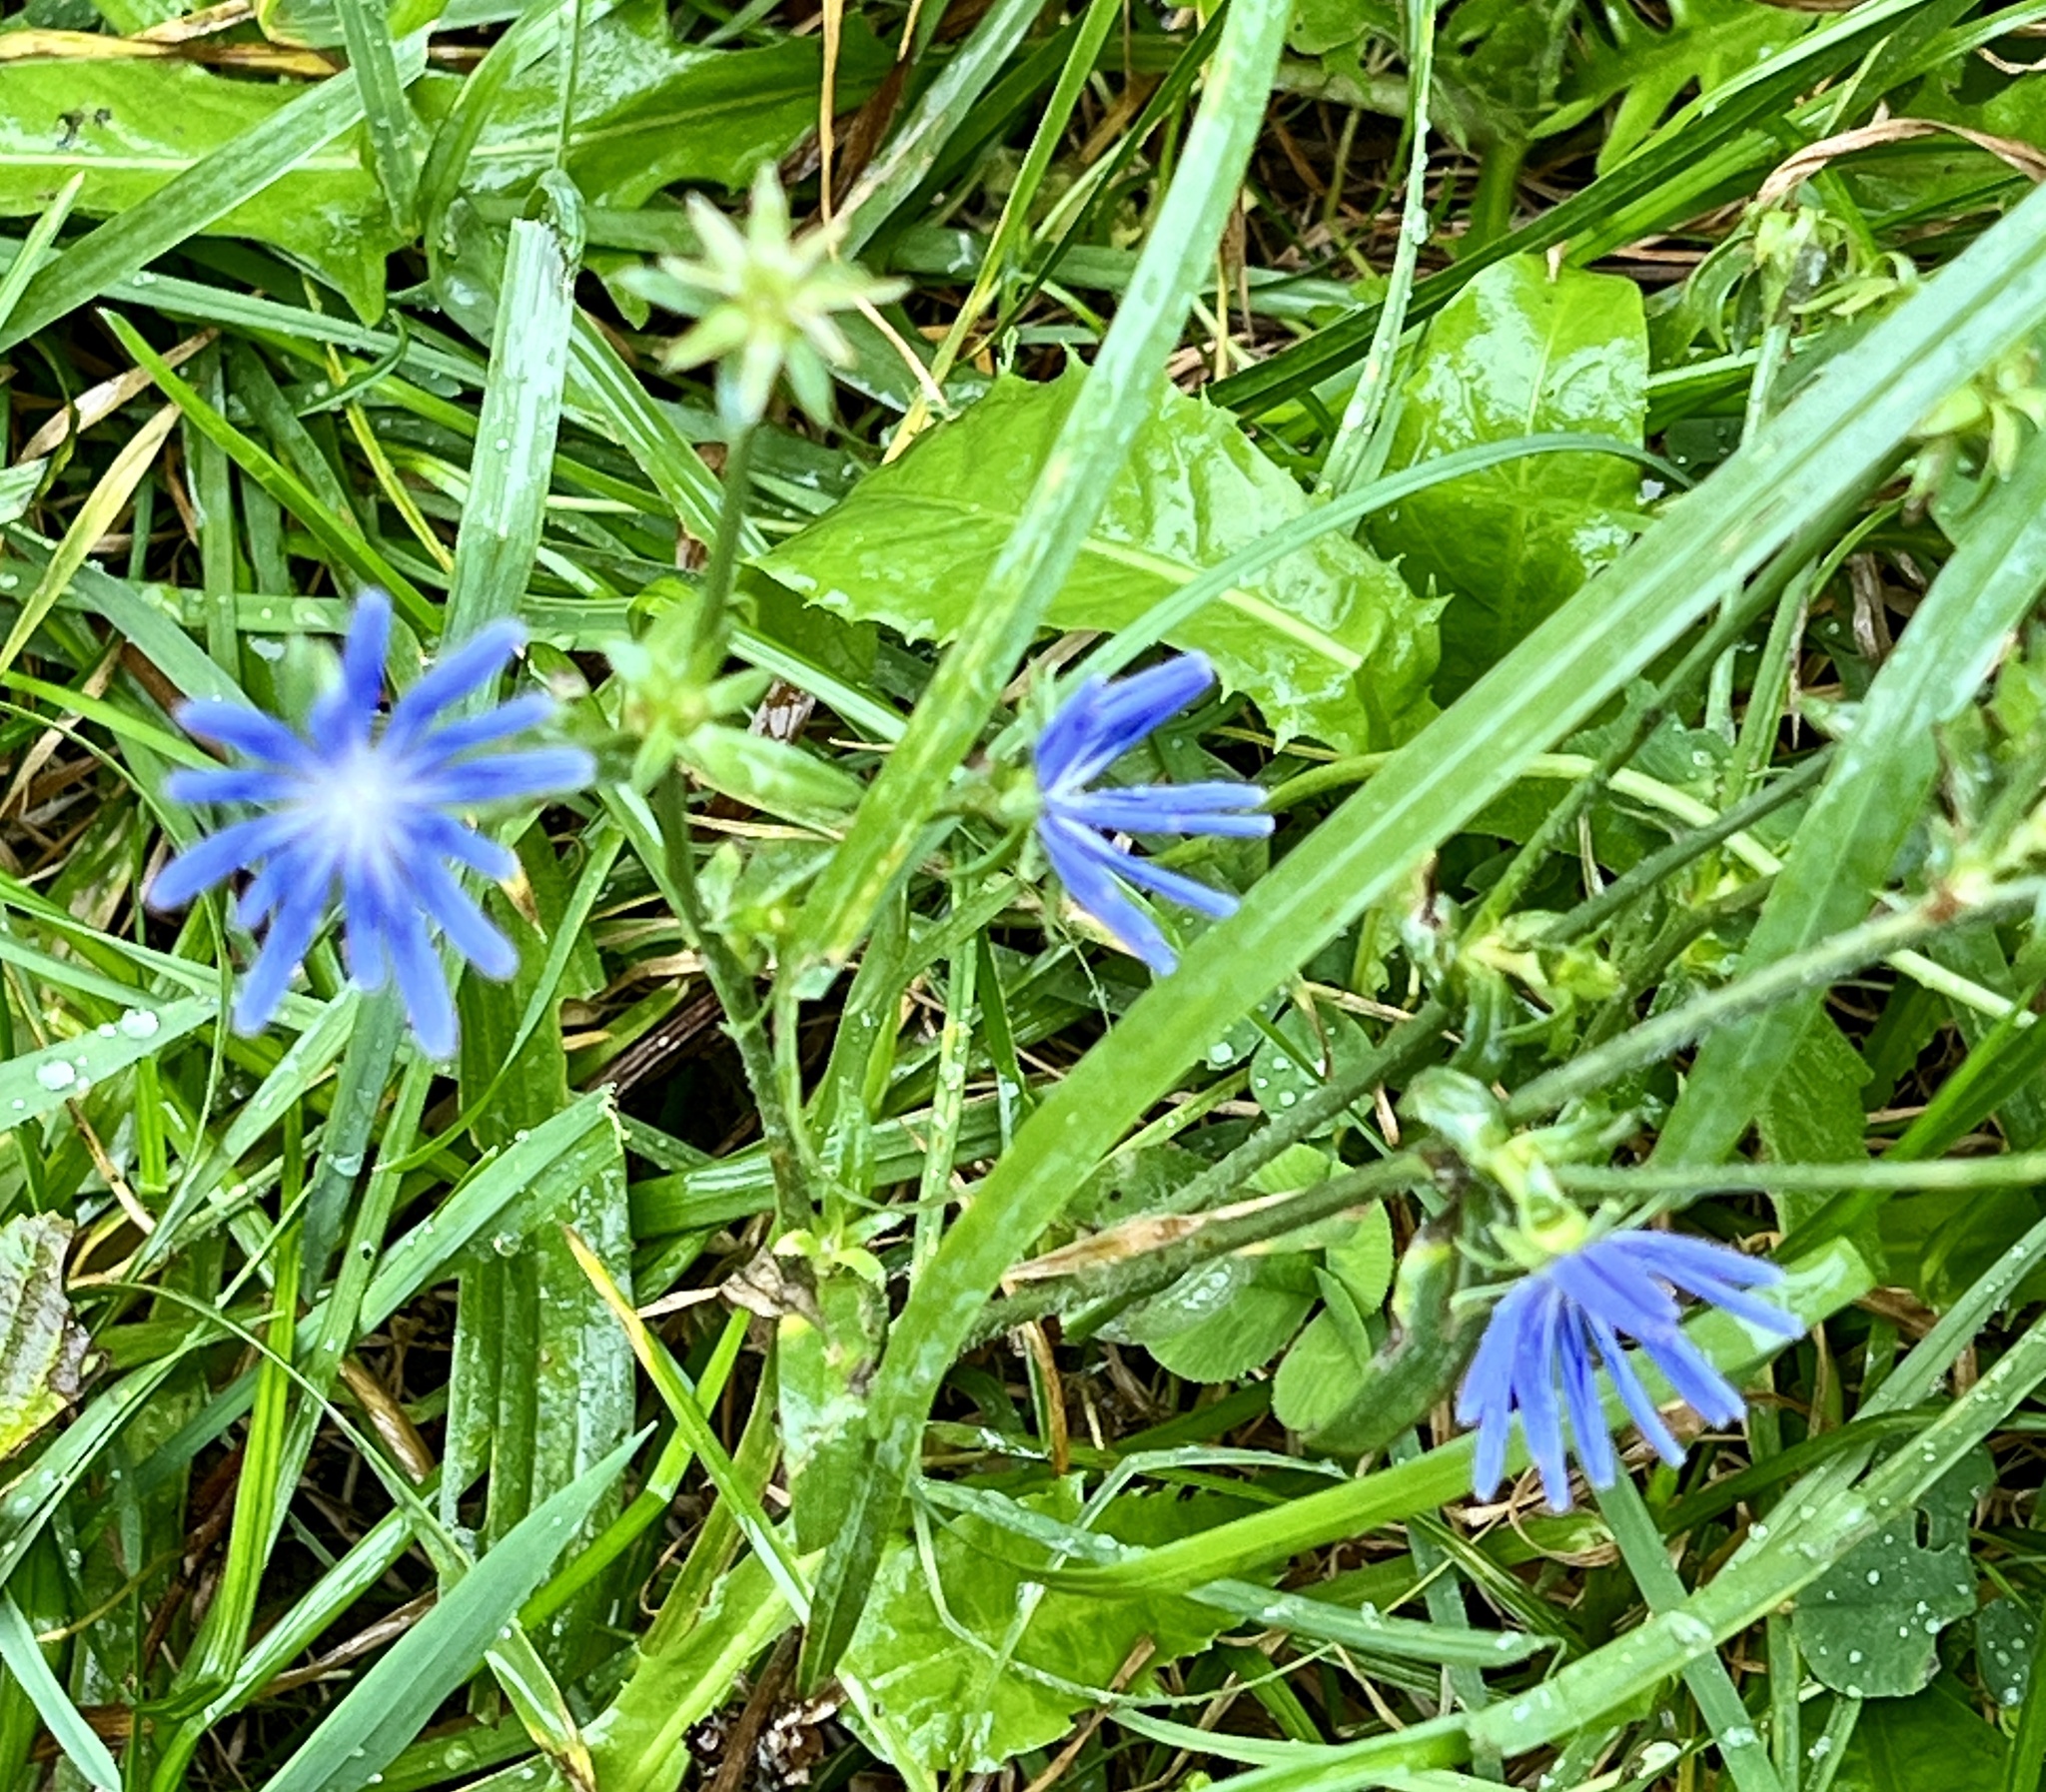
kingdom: Plantae
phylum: Tracheophyta
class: Magnoliopsida
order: Asterales
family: Asteraceae
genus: Cichorium
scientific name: Cichorium intybus
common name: Chicory
